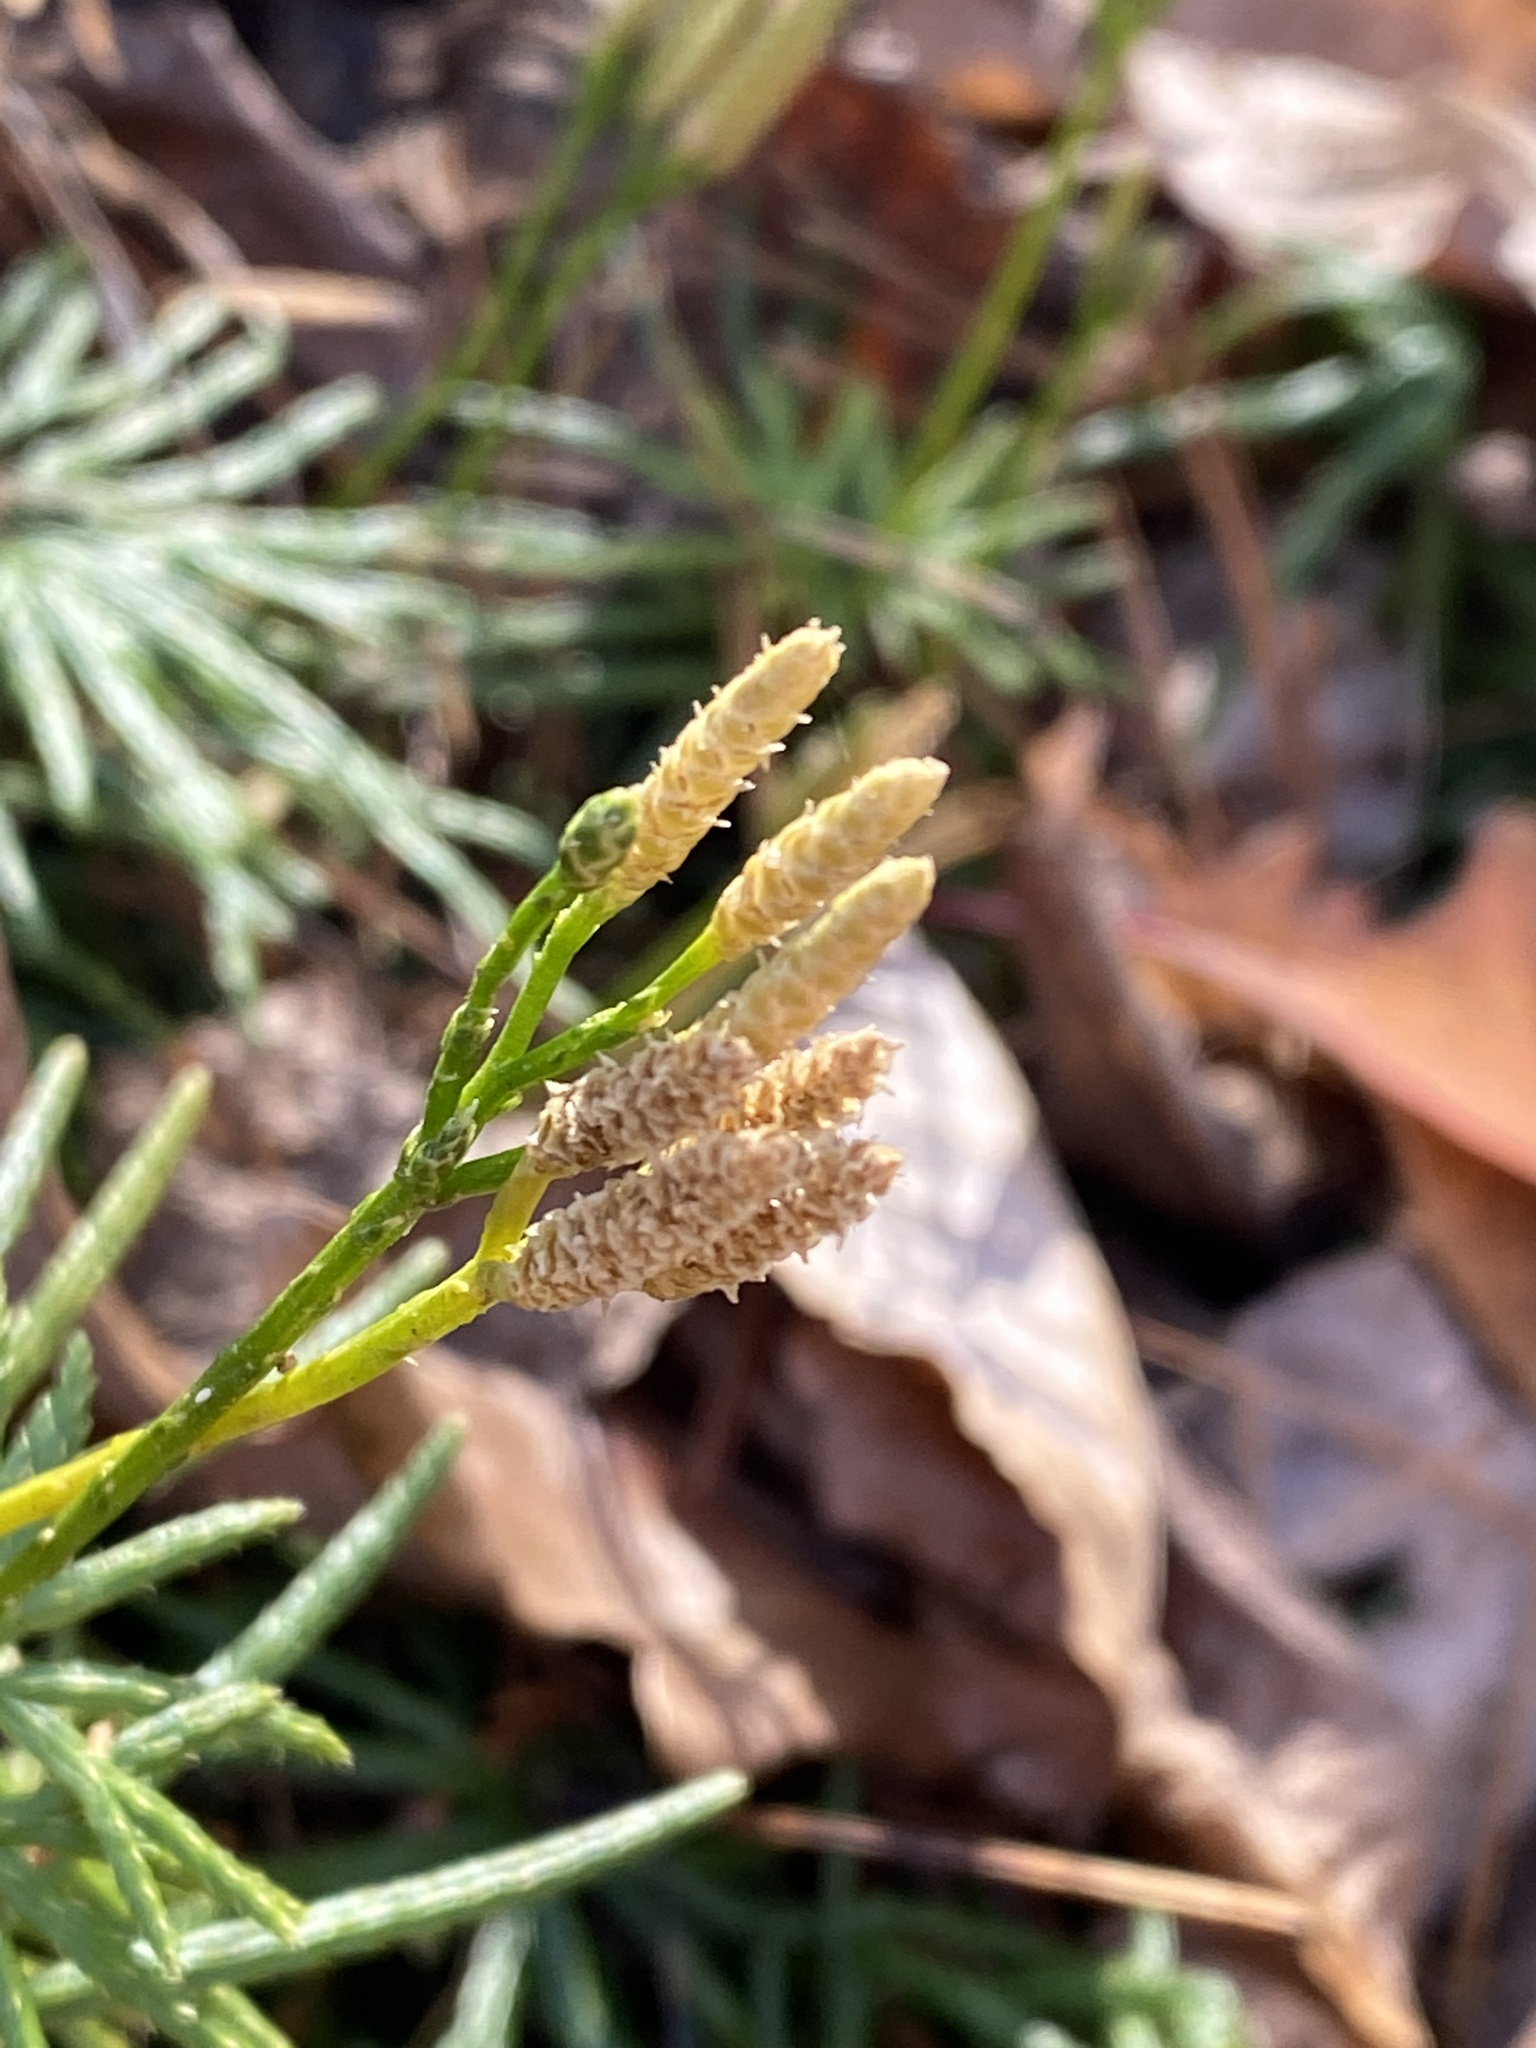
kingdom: Plantae
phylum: Tracheophyta
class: Lycopodiopsida
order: Lycopodiales
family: Lycopodiaceae
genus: Diphasiastrum
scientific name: Diphasiastrum digitatum
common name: Southern running-pine
